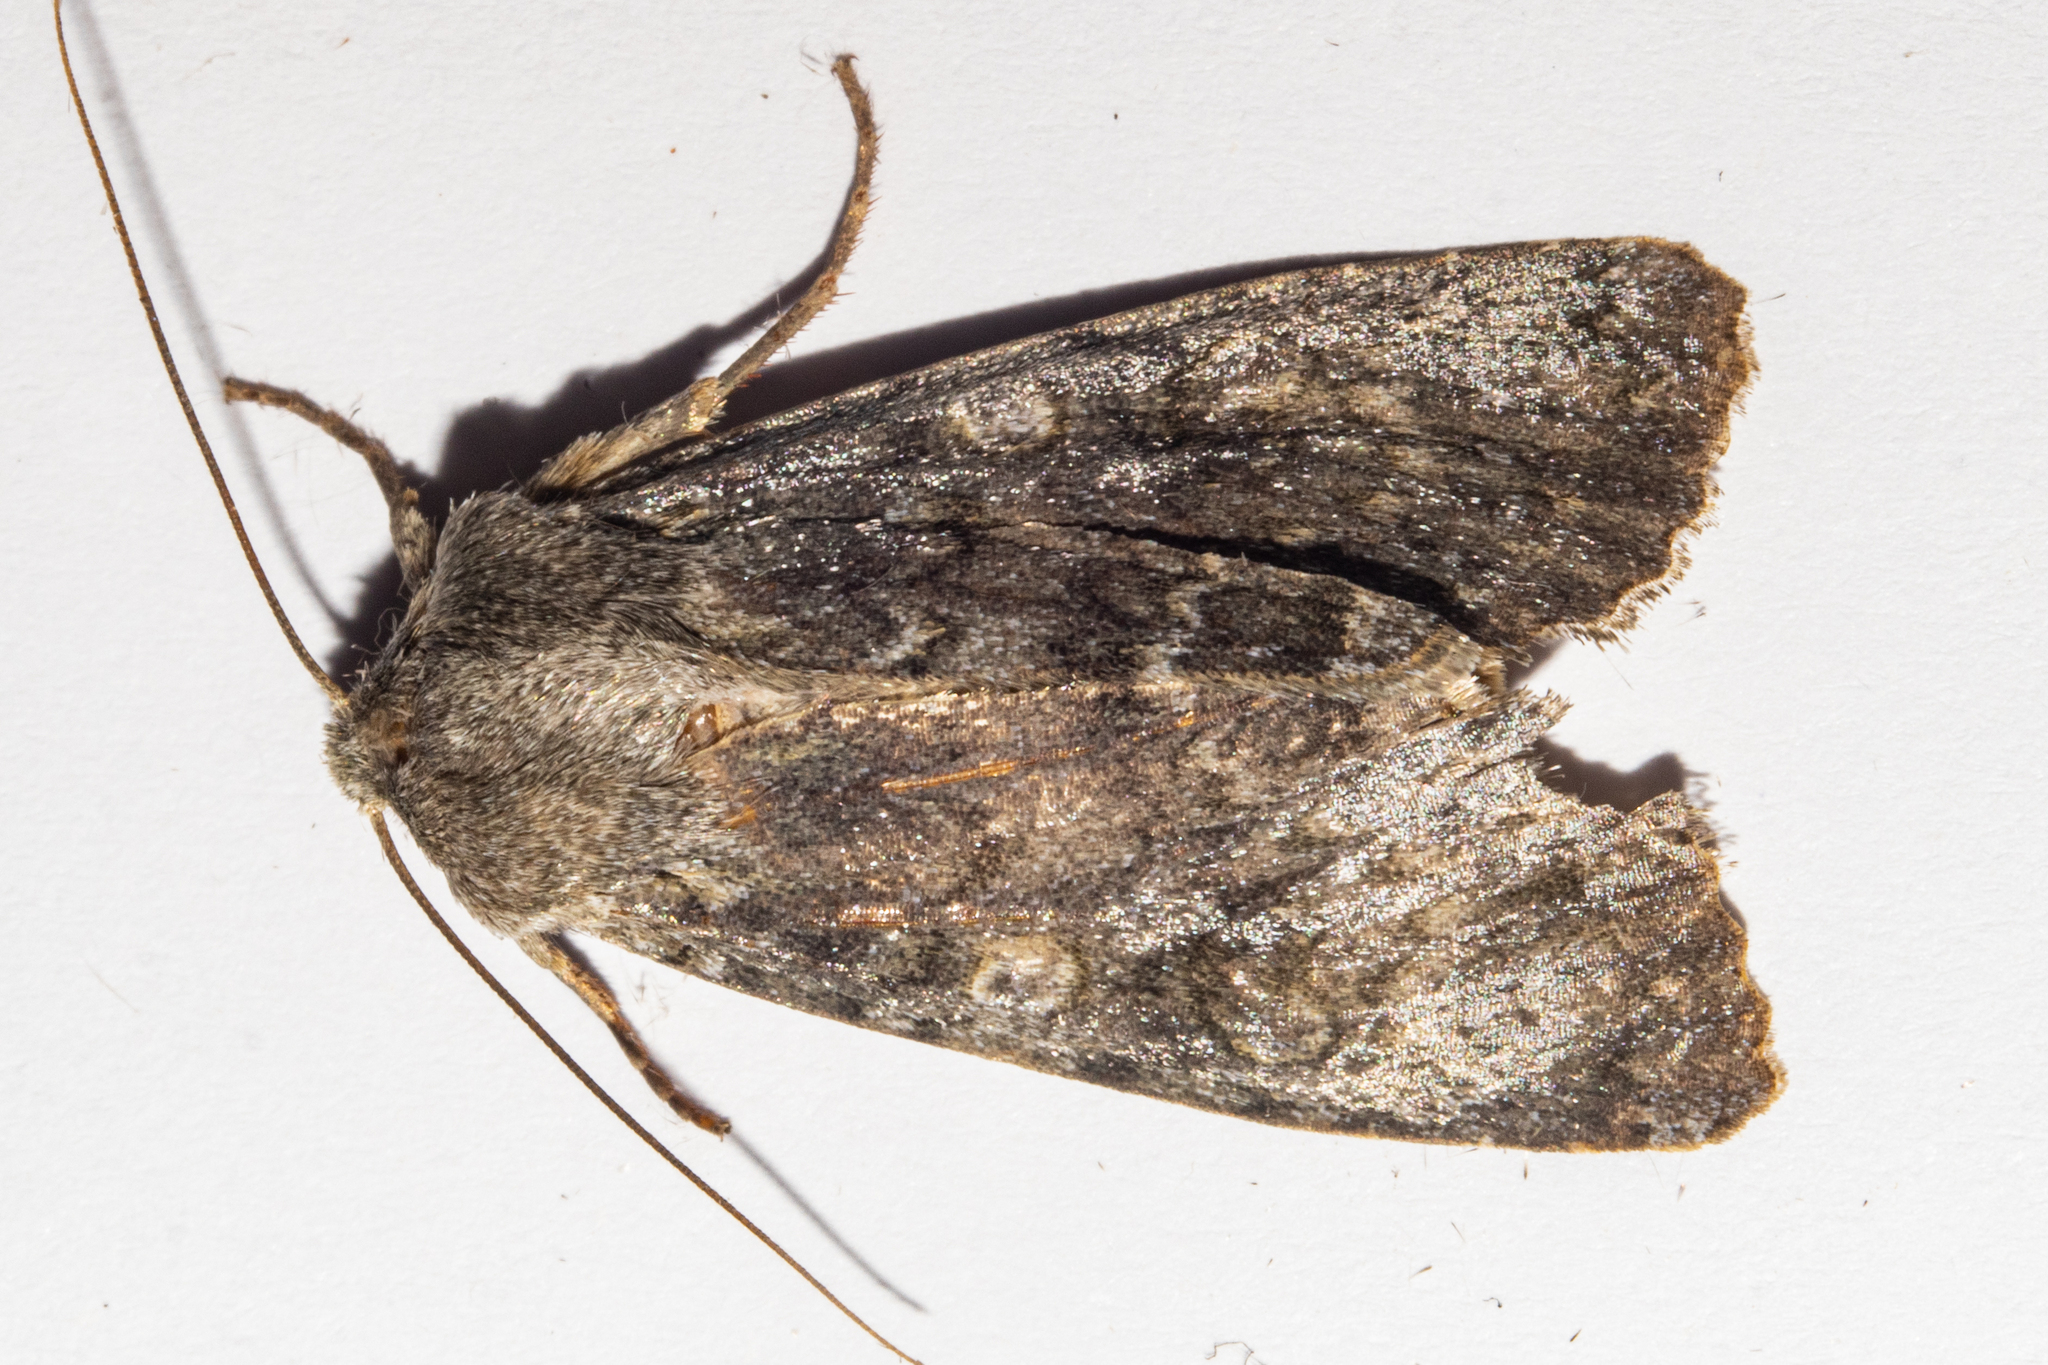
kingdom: Animalia
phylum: Arthropoda
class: Insecta
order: Lepidoptera
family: Noctuidae
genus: Ichneutica
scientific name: Ichneutica
